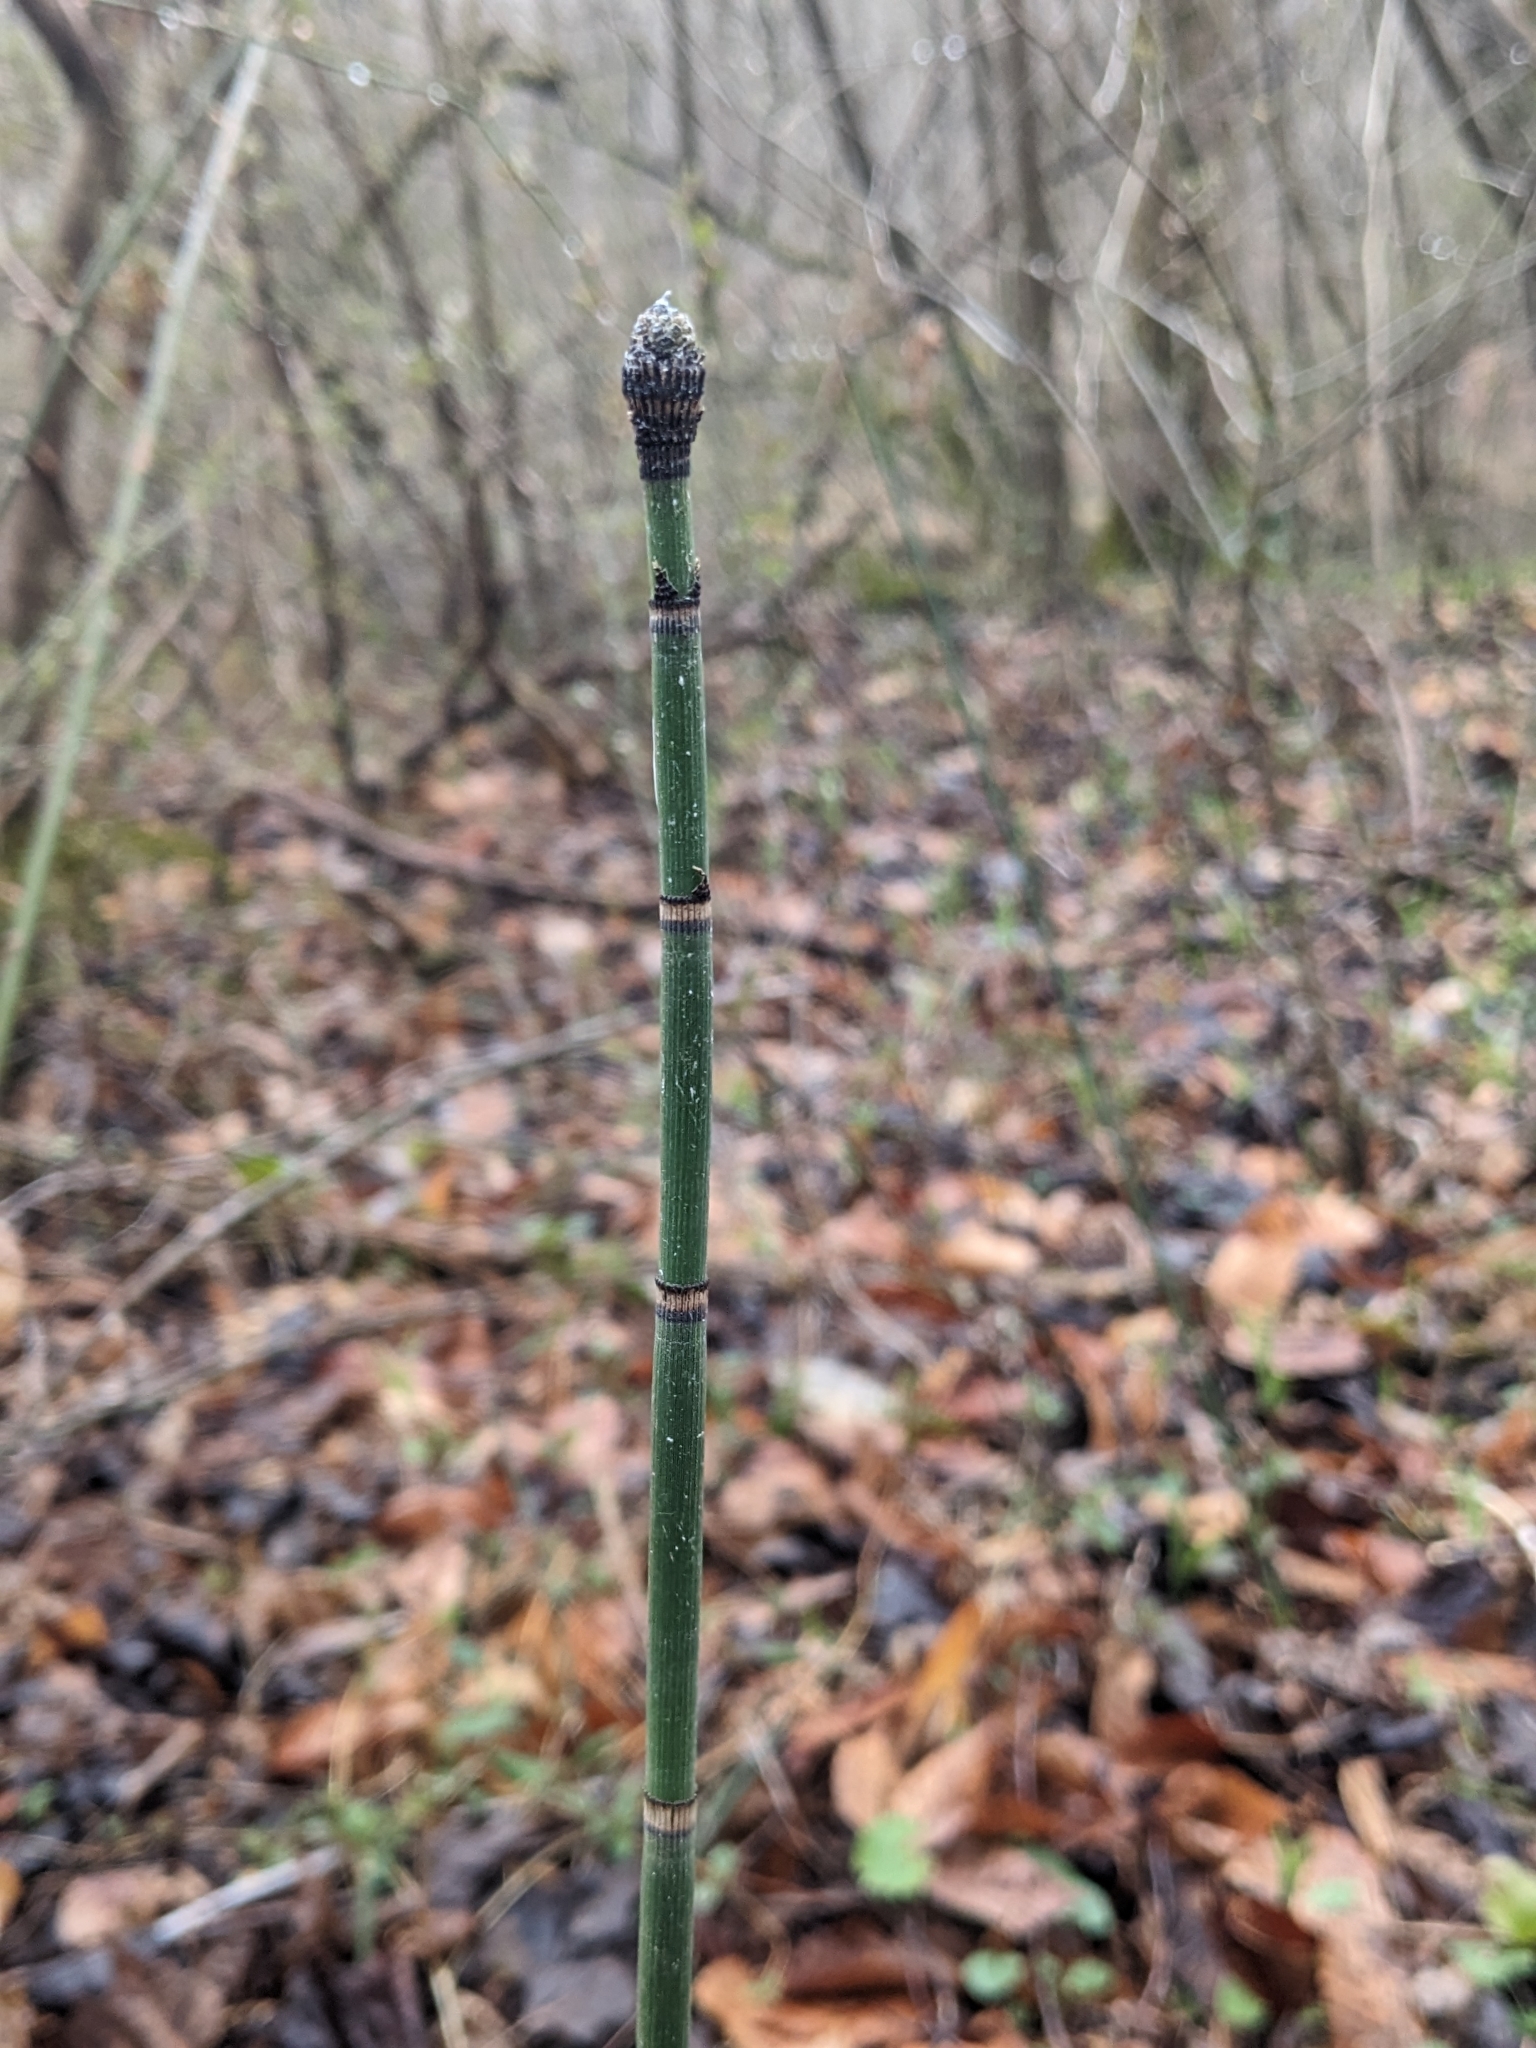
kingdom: Plantae
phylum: Tracheophyta
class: Polypodiopsida
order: Equisetales
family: Equisetaceae
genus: Equisetum
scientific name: Equisetum praealtum
